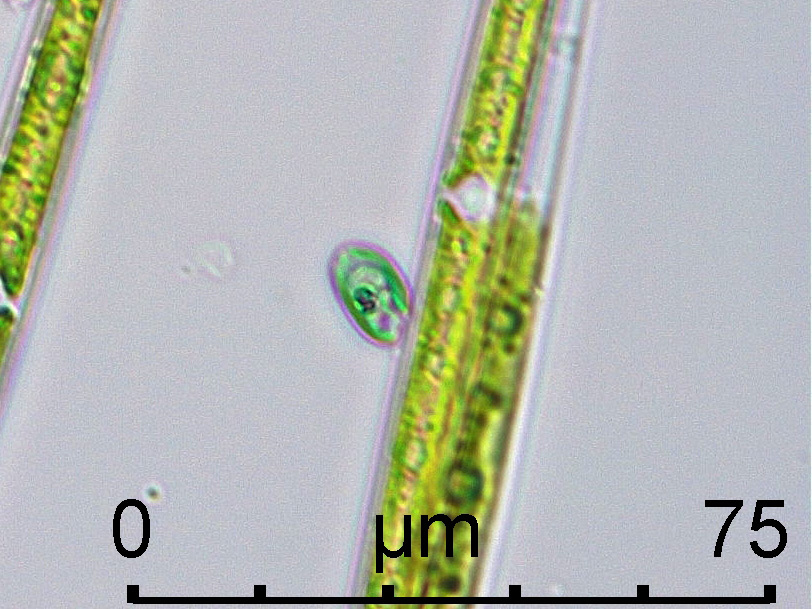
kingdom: Chromista
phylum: Cryptophyta
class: Cryptophyceae
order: Pyrenomonadales
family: Chroomonadaceae
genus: Chroomonas
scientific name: Chroomonas
